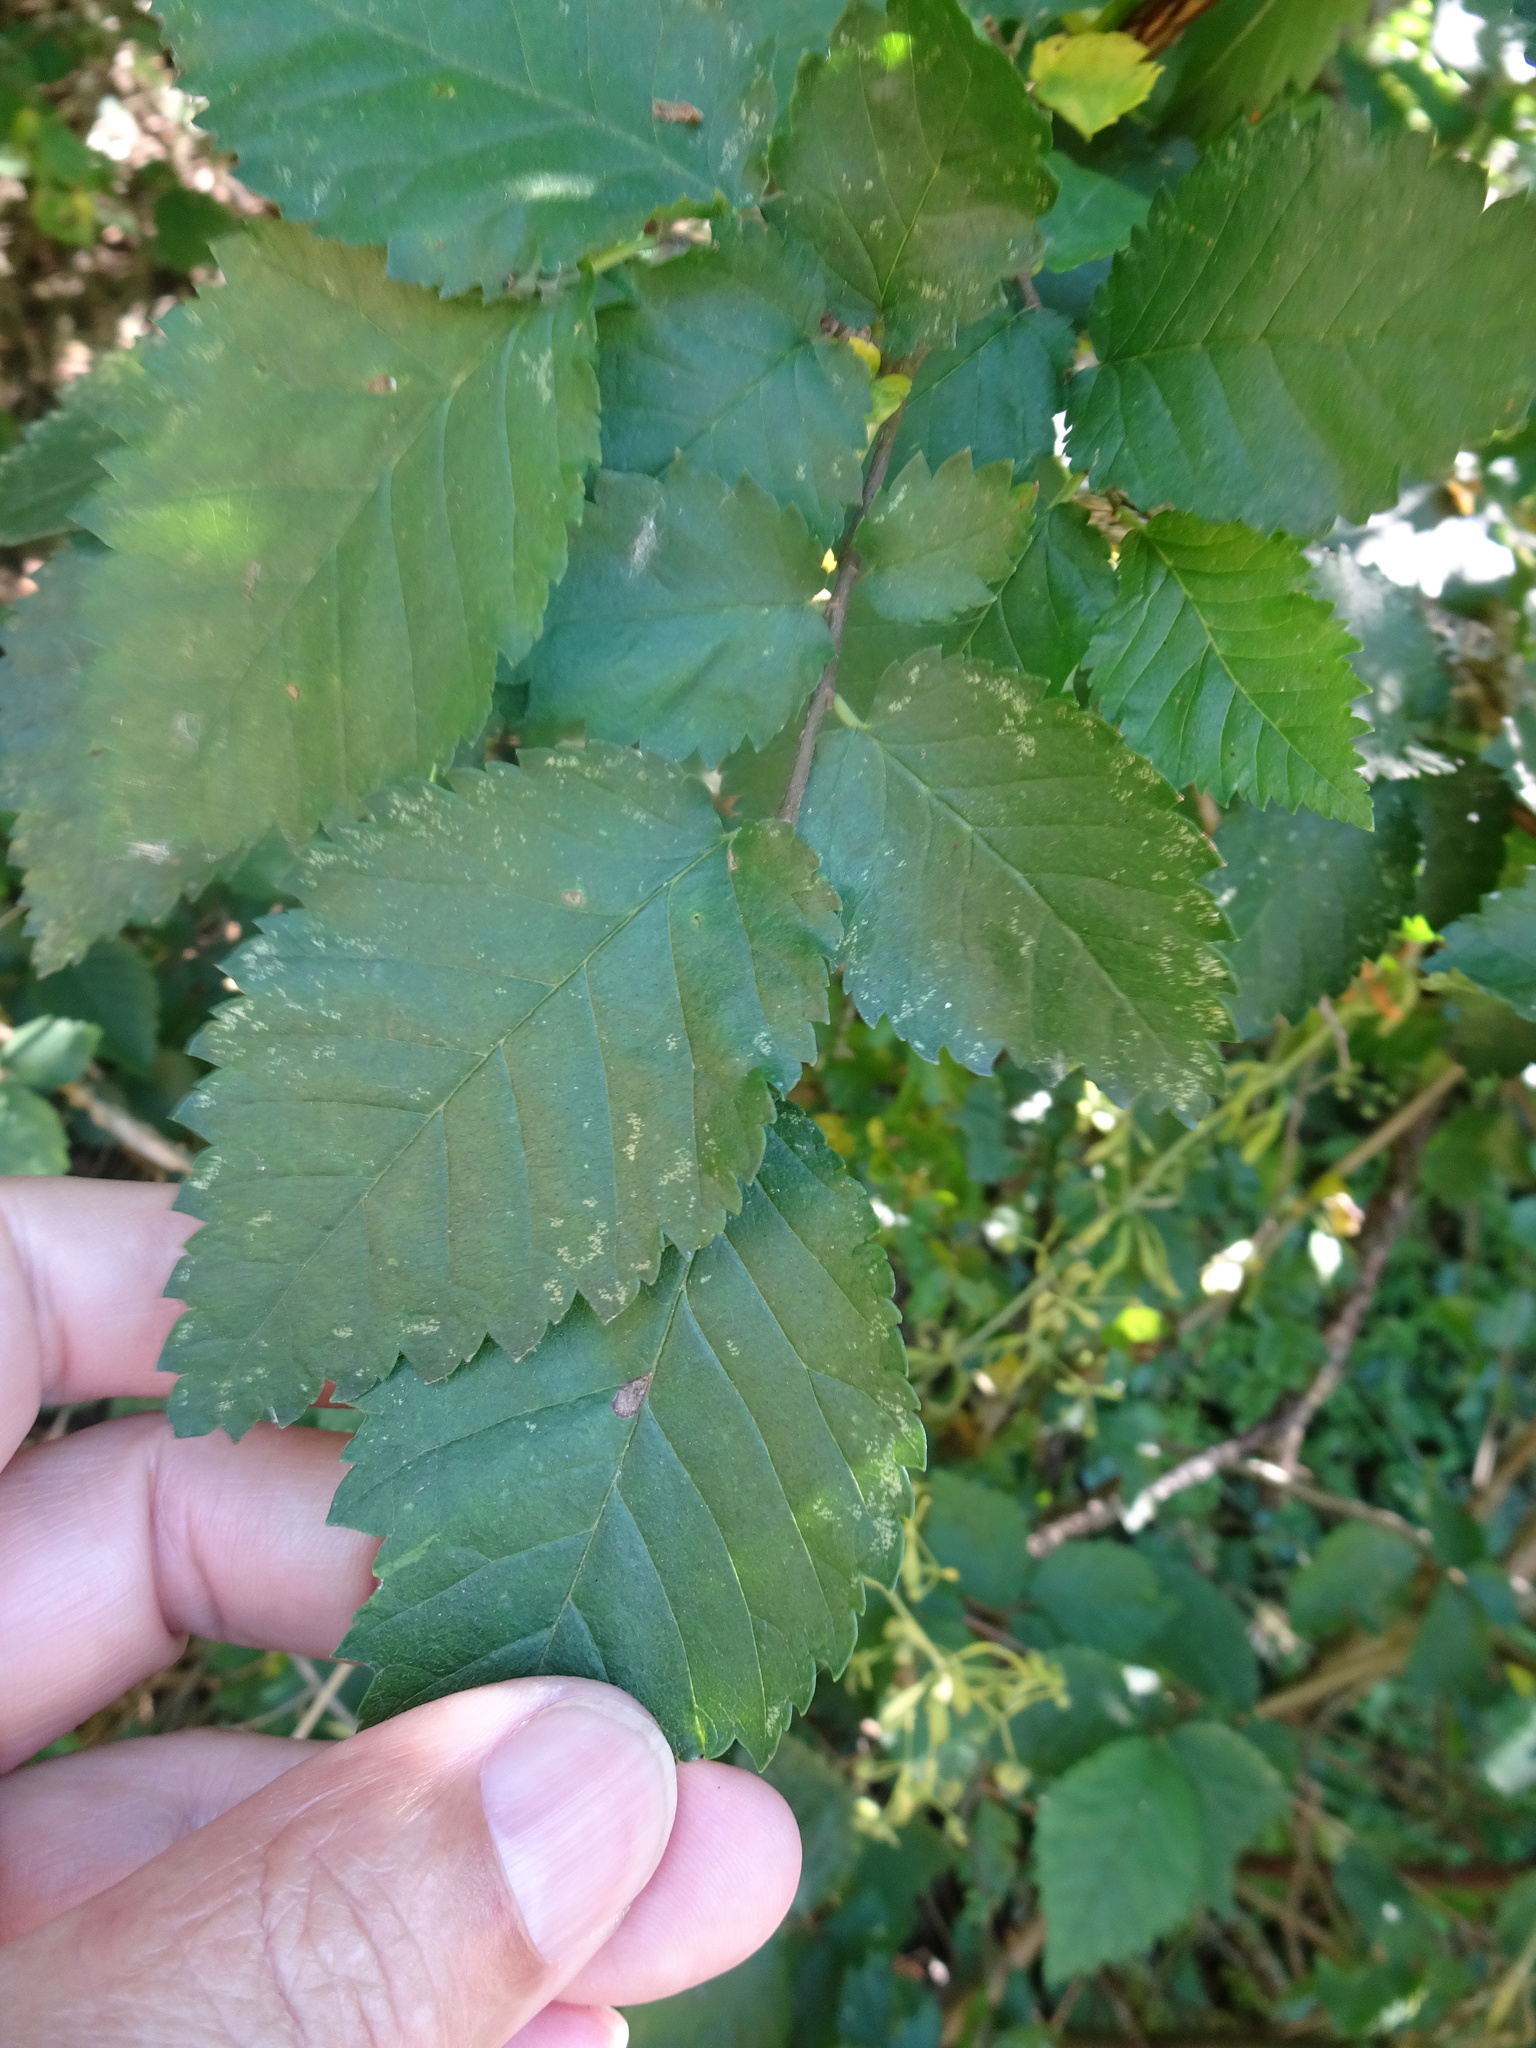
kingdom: Plantae
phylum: Tracheophyta
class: Magnoliopsida
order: Rosales
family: Ulmaceae
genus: Ulmus
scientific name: Ulmus minor
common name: Small-leaved elm
